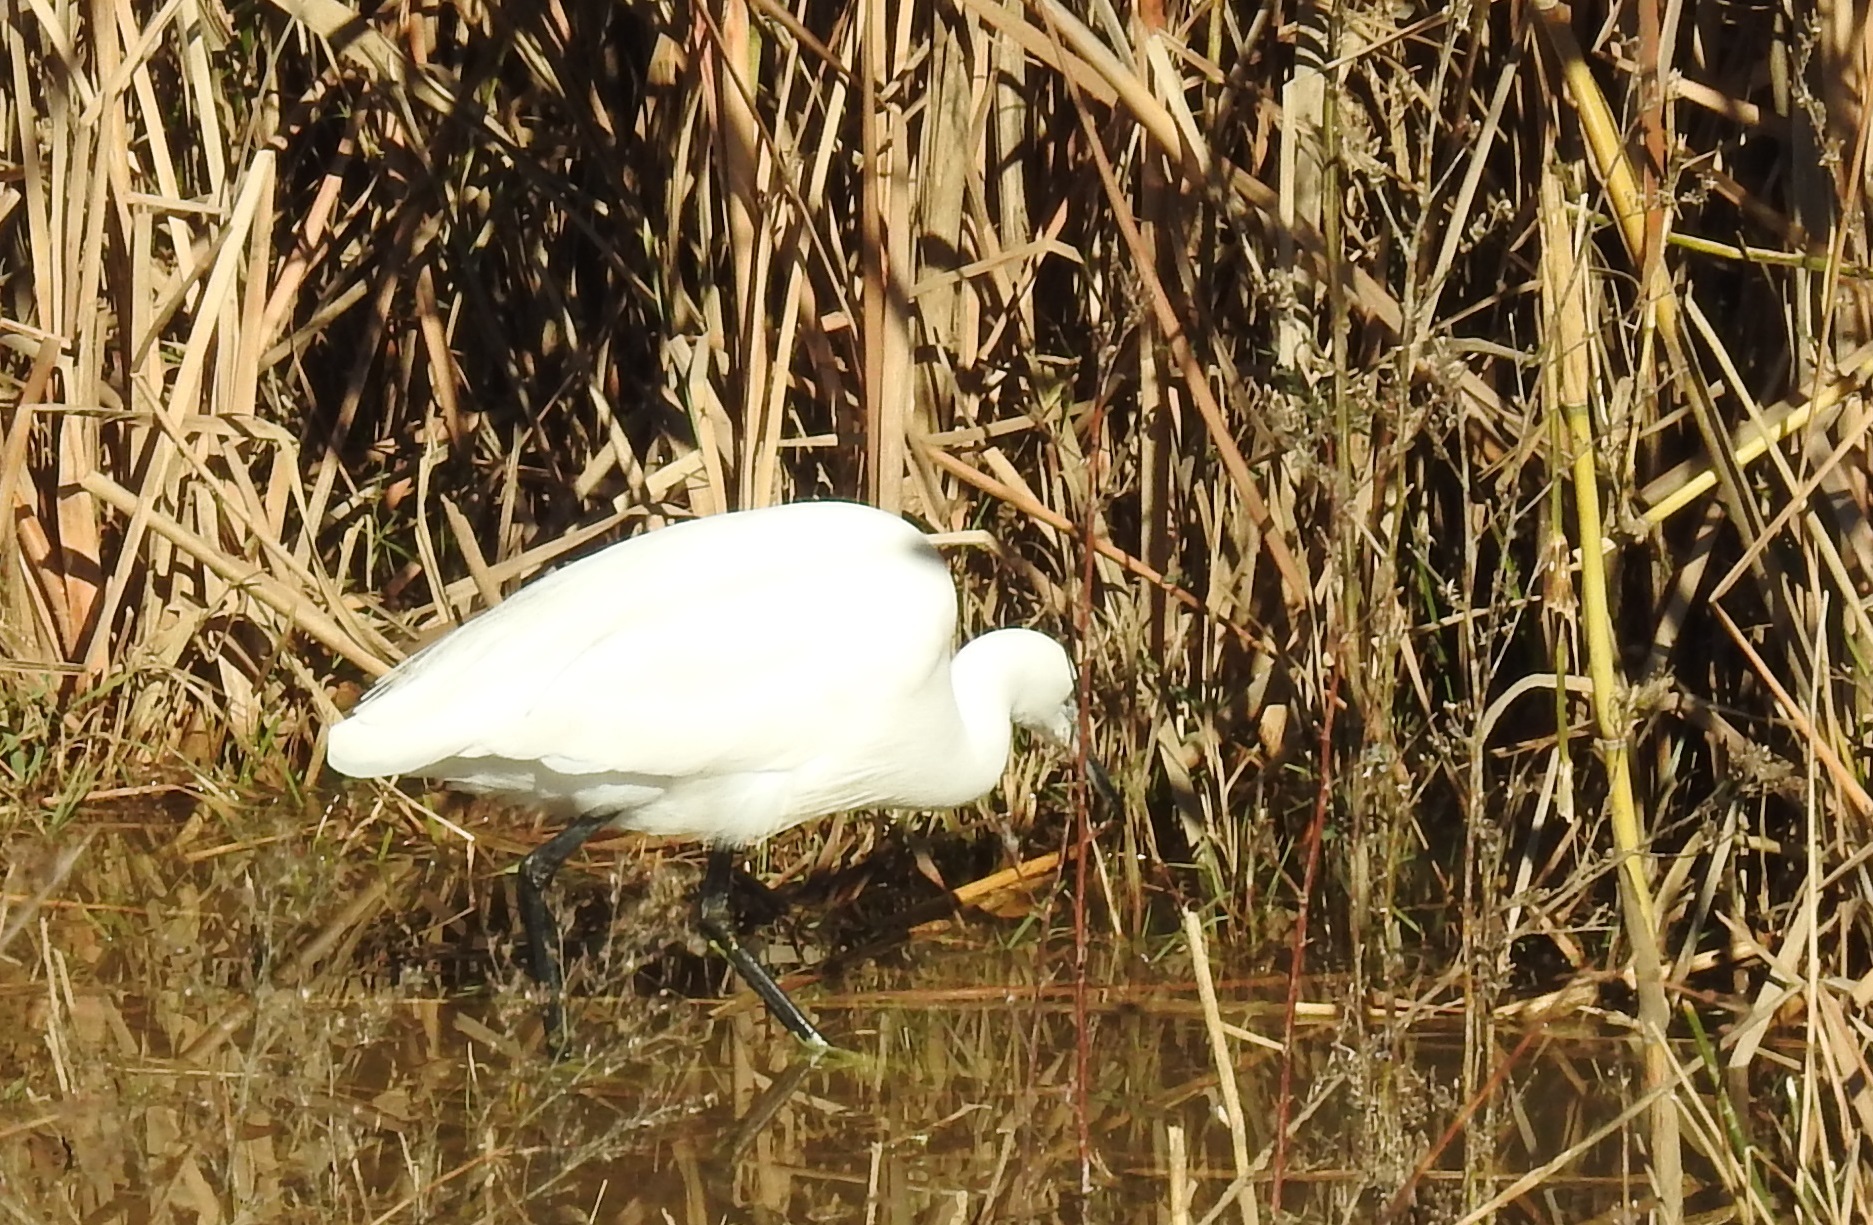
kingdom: Animalia
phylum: Chordata
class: Aves
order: Pelecaniformes
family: Ardeidae
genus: Egretta
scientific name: Egretta garzetta
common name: Little egret
